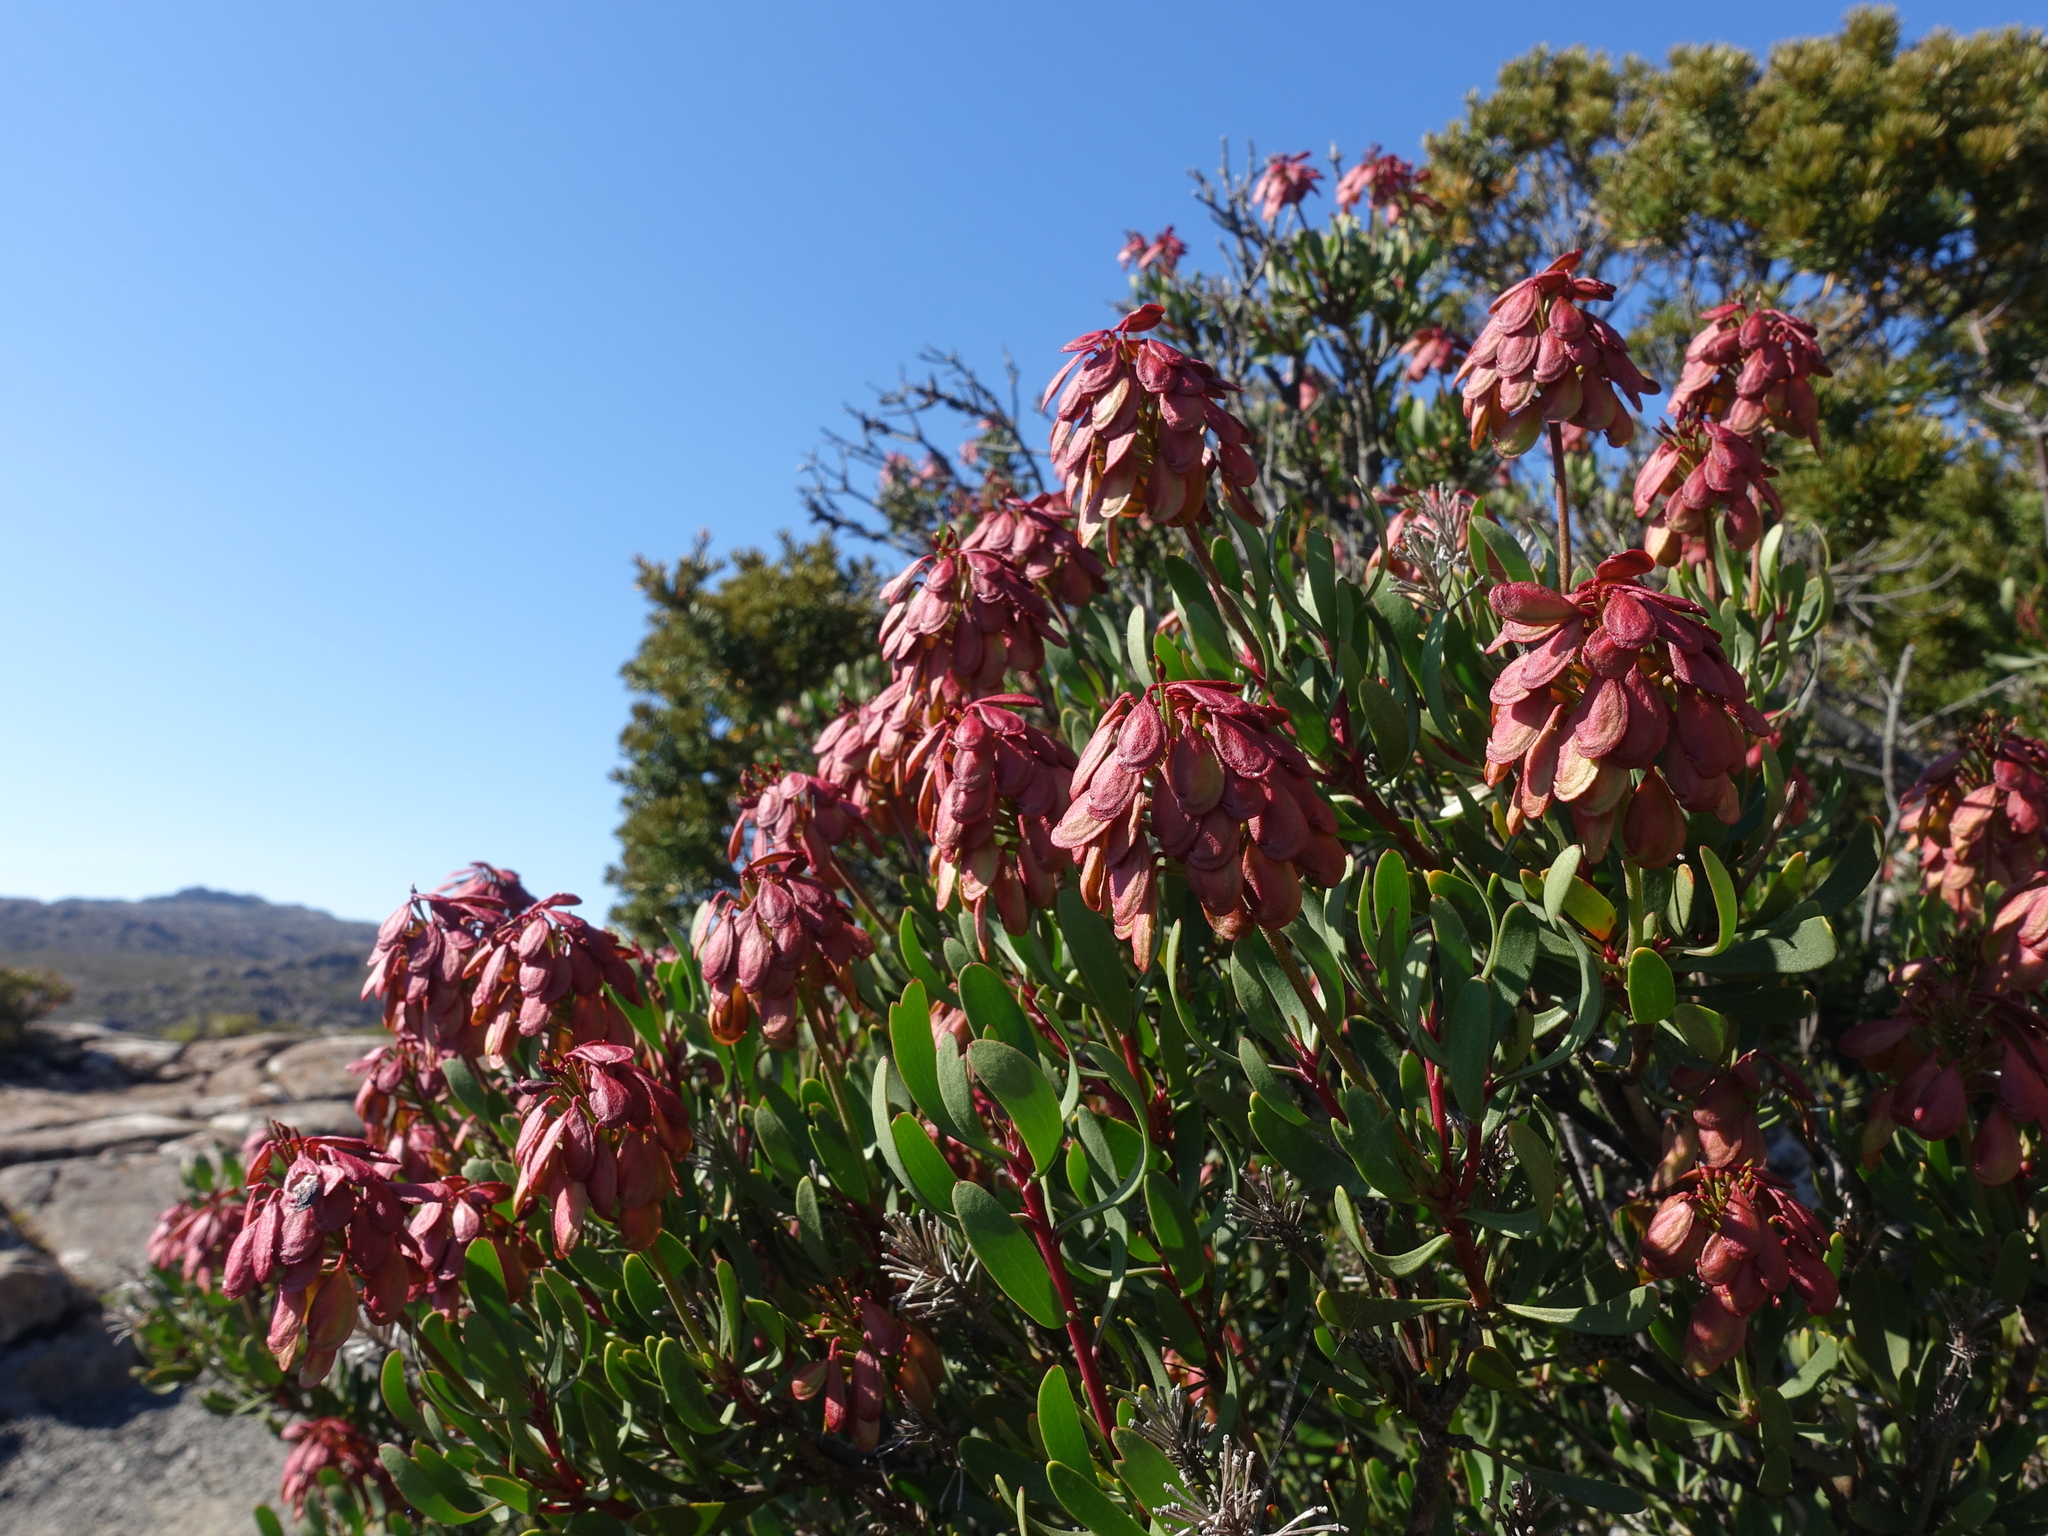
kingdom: Plantae
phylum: Tracheophyta
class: Magnoliopsida
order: Proteales
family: Proteaceae
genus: Bellendena
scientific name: Bellendena montana
